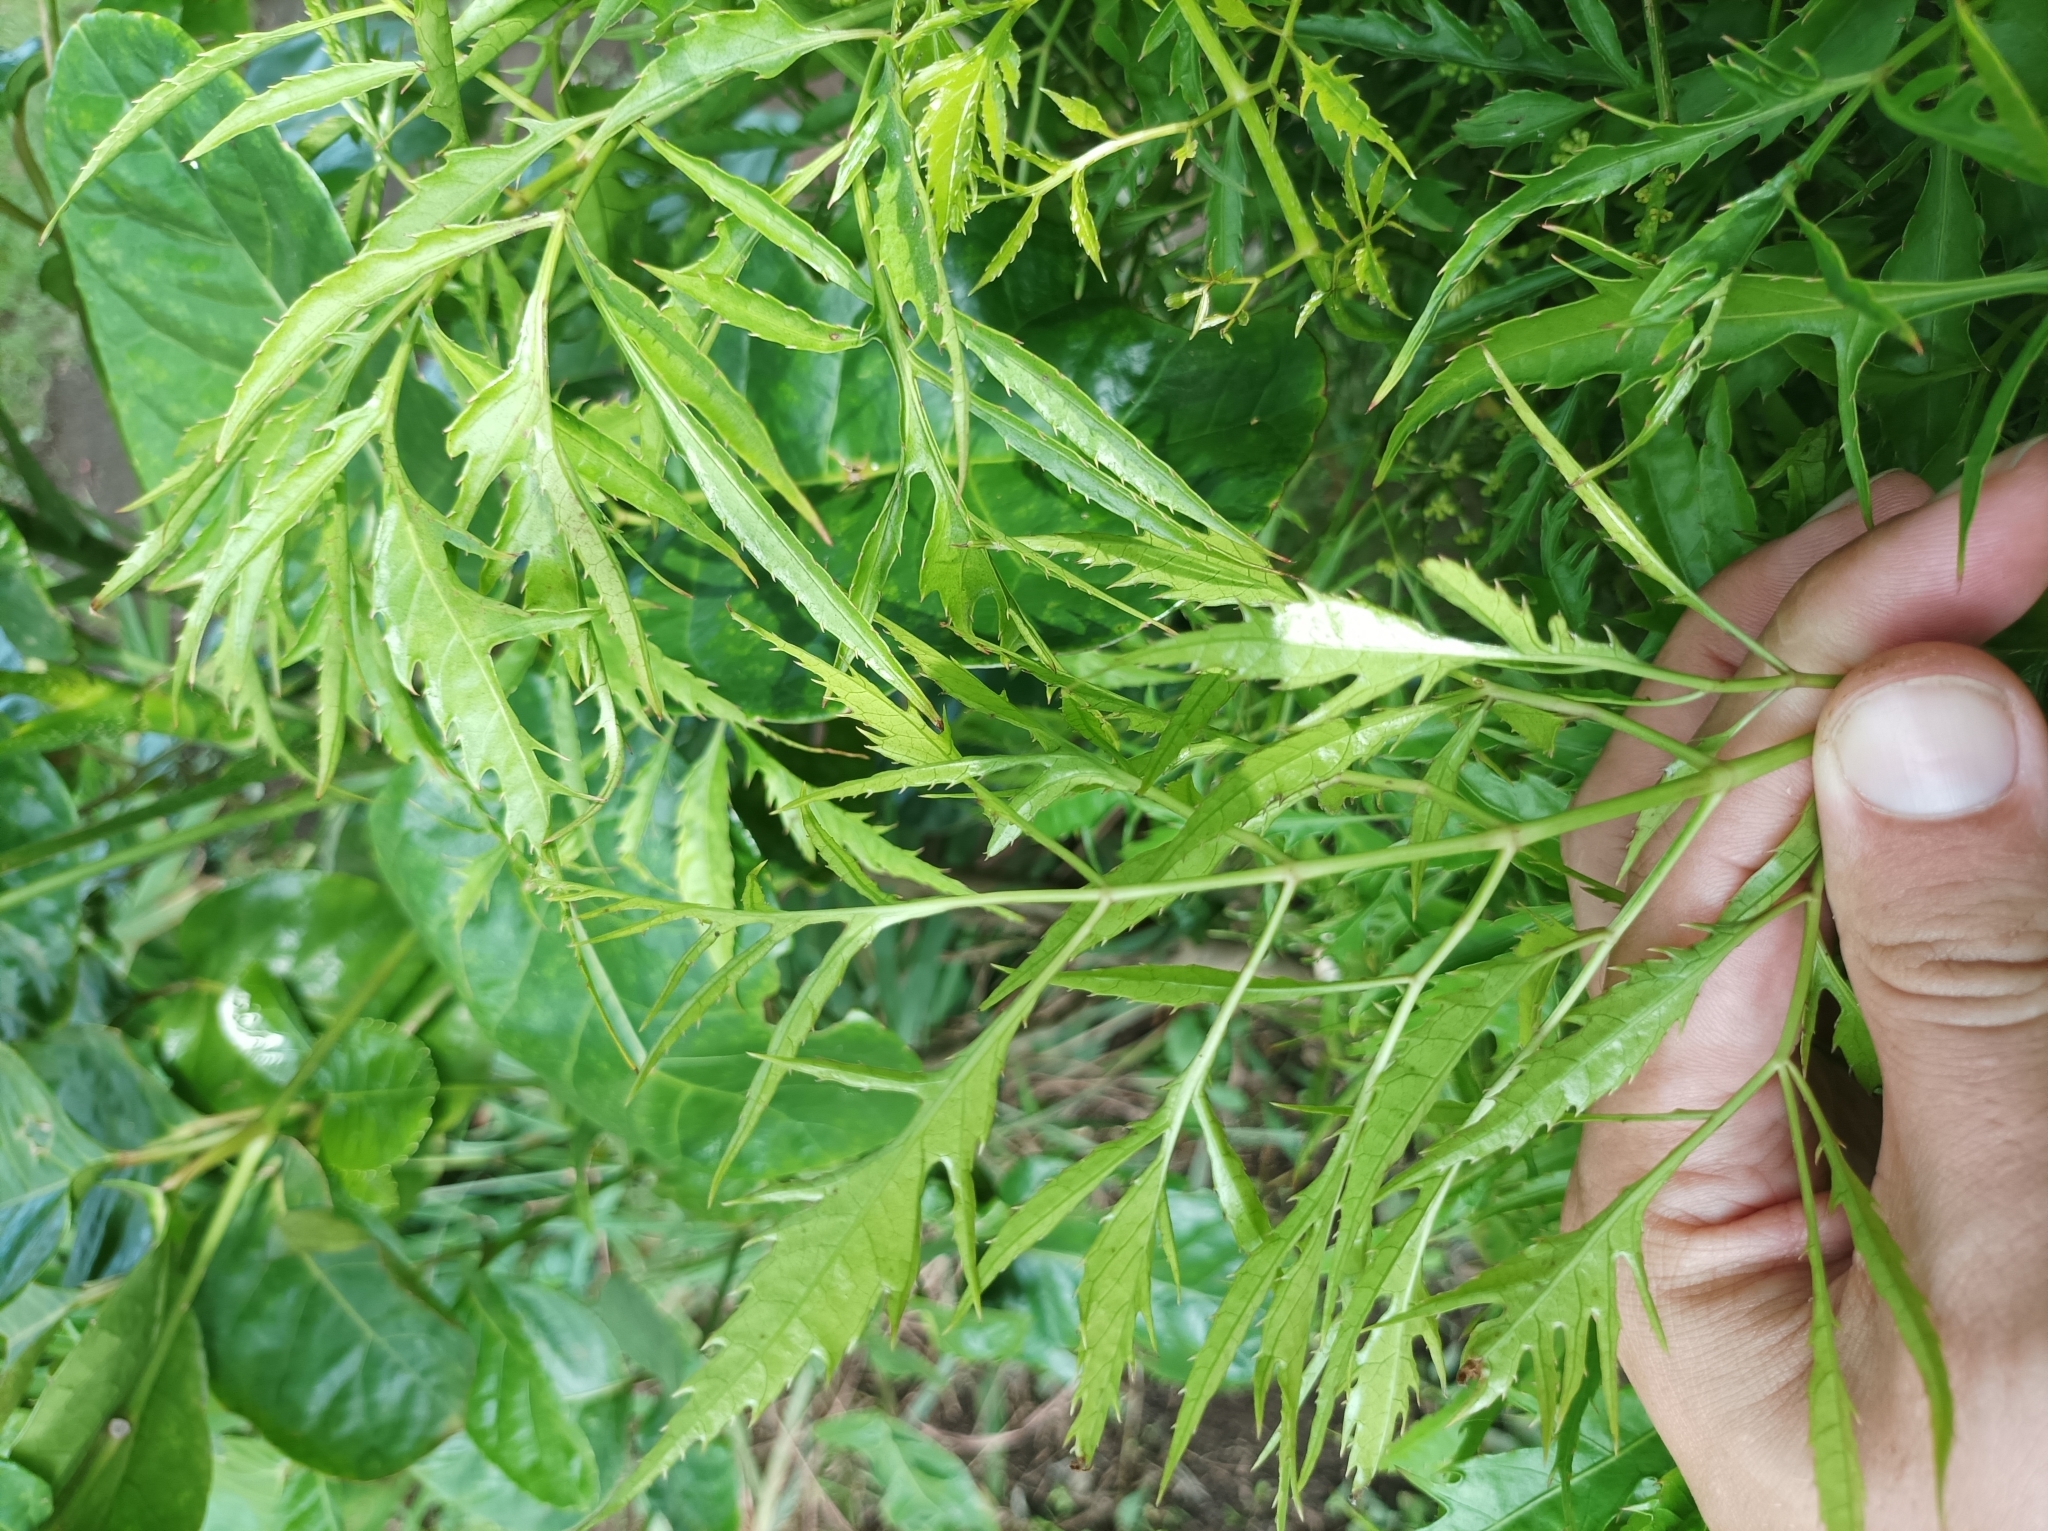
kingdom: Plantae
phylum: Tracheophyta
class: Magnoliopsida
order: Apiales
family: Araliaceae
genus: Polyscias
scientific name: Polyscias fruticosa
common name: Teatree
